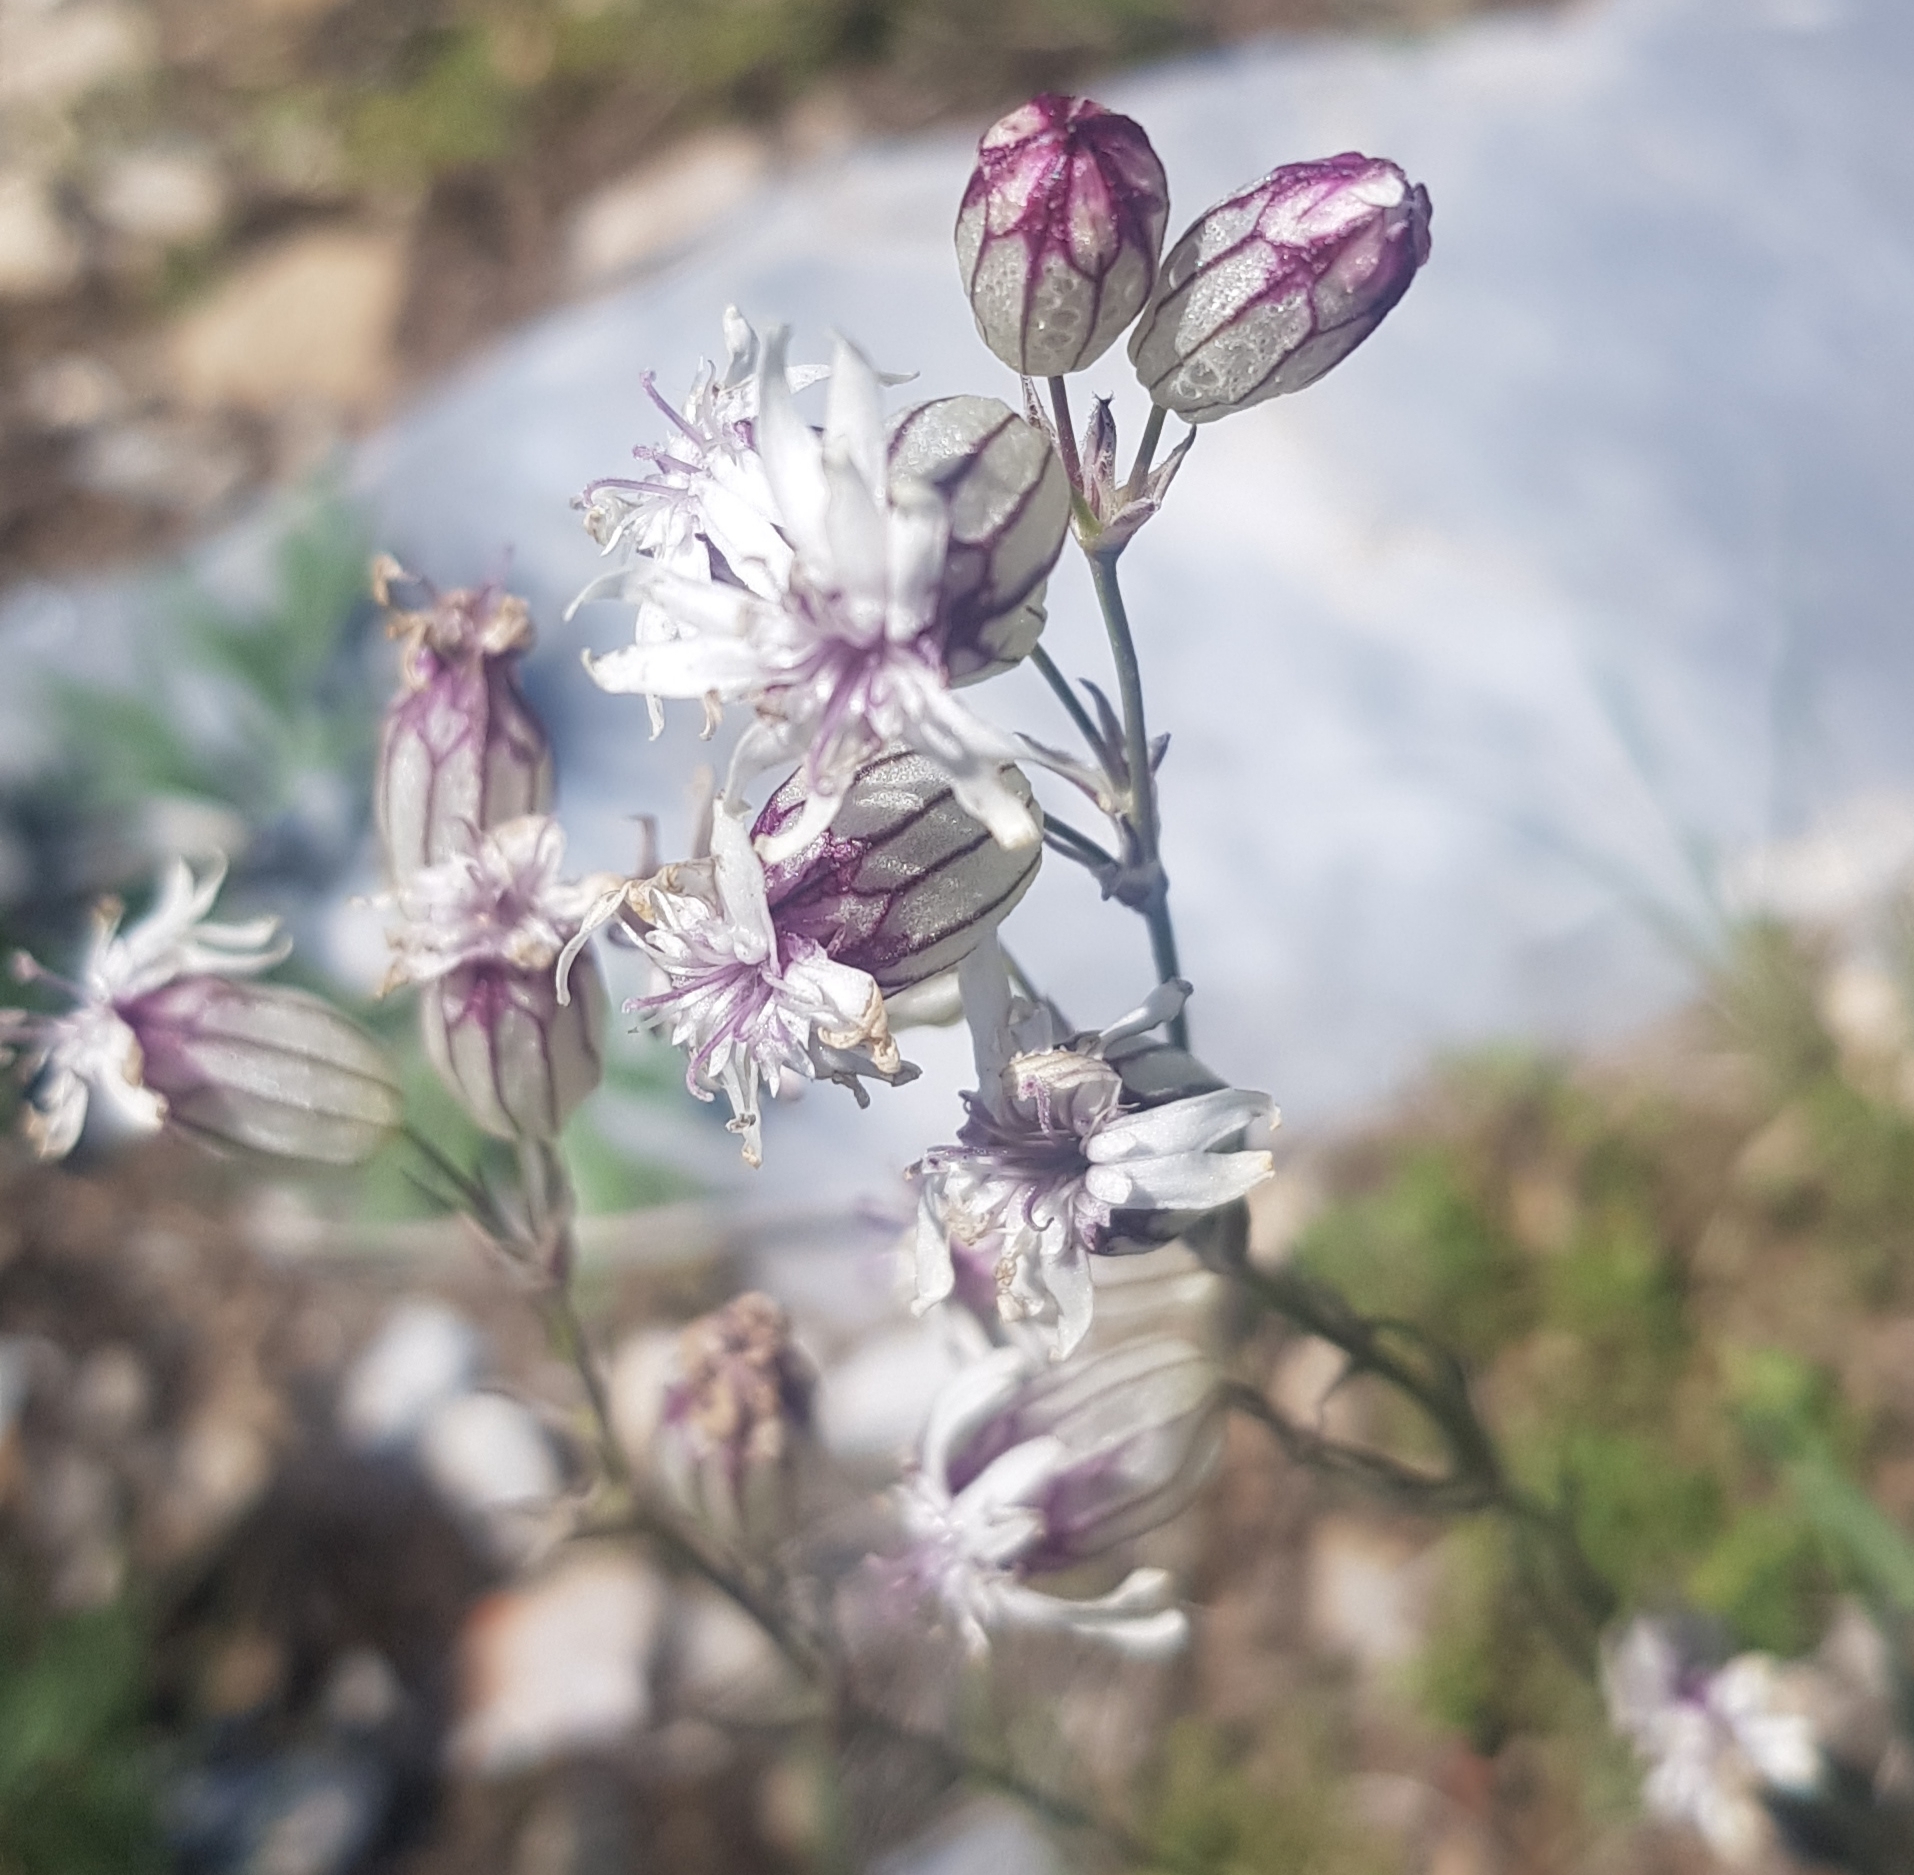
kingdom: Plantae
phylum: Tracheophyta
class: Magnoliopsida
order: Caryophyllales
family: Caryophyllaceae
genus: Silene
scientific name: Silene repens
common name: Pink campion
